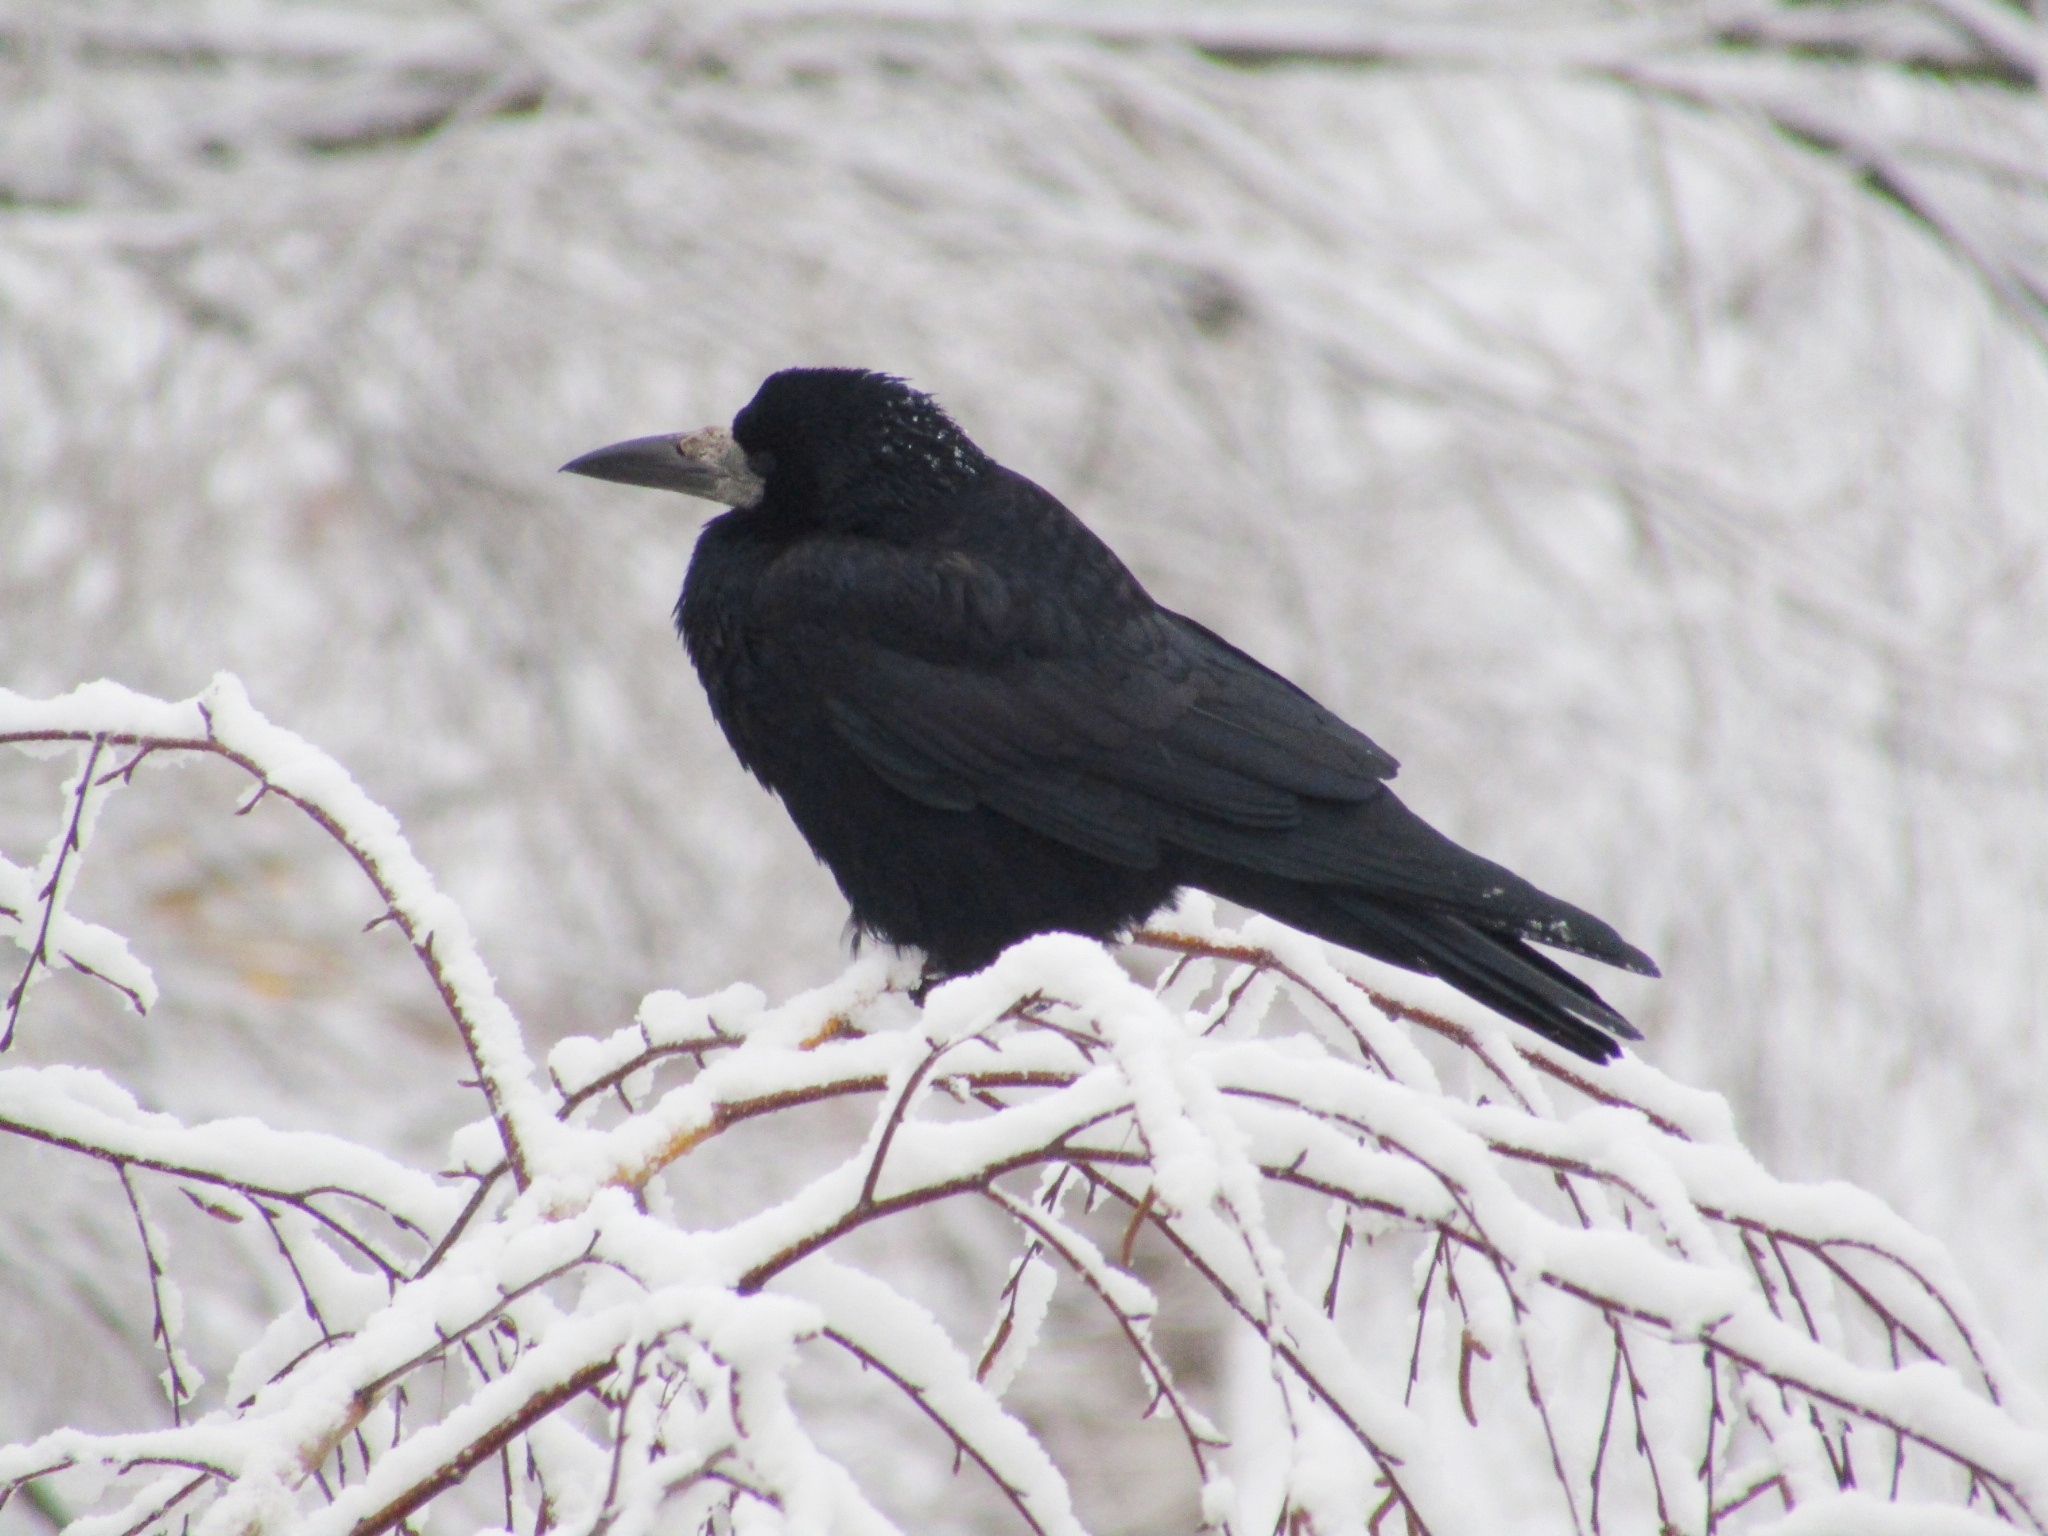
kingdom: Animalia
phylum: Chordata
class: Aves
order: Passeriformes
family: Corvidae
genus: Corvus
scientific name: Corvus frugilegus
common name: Rook
